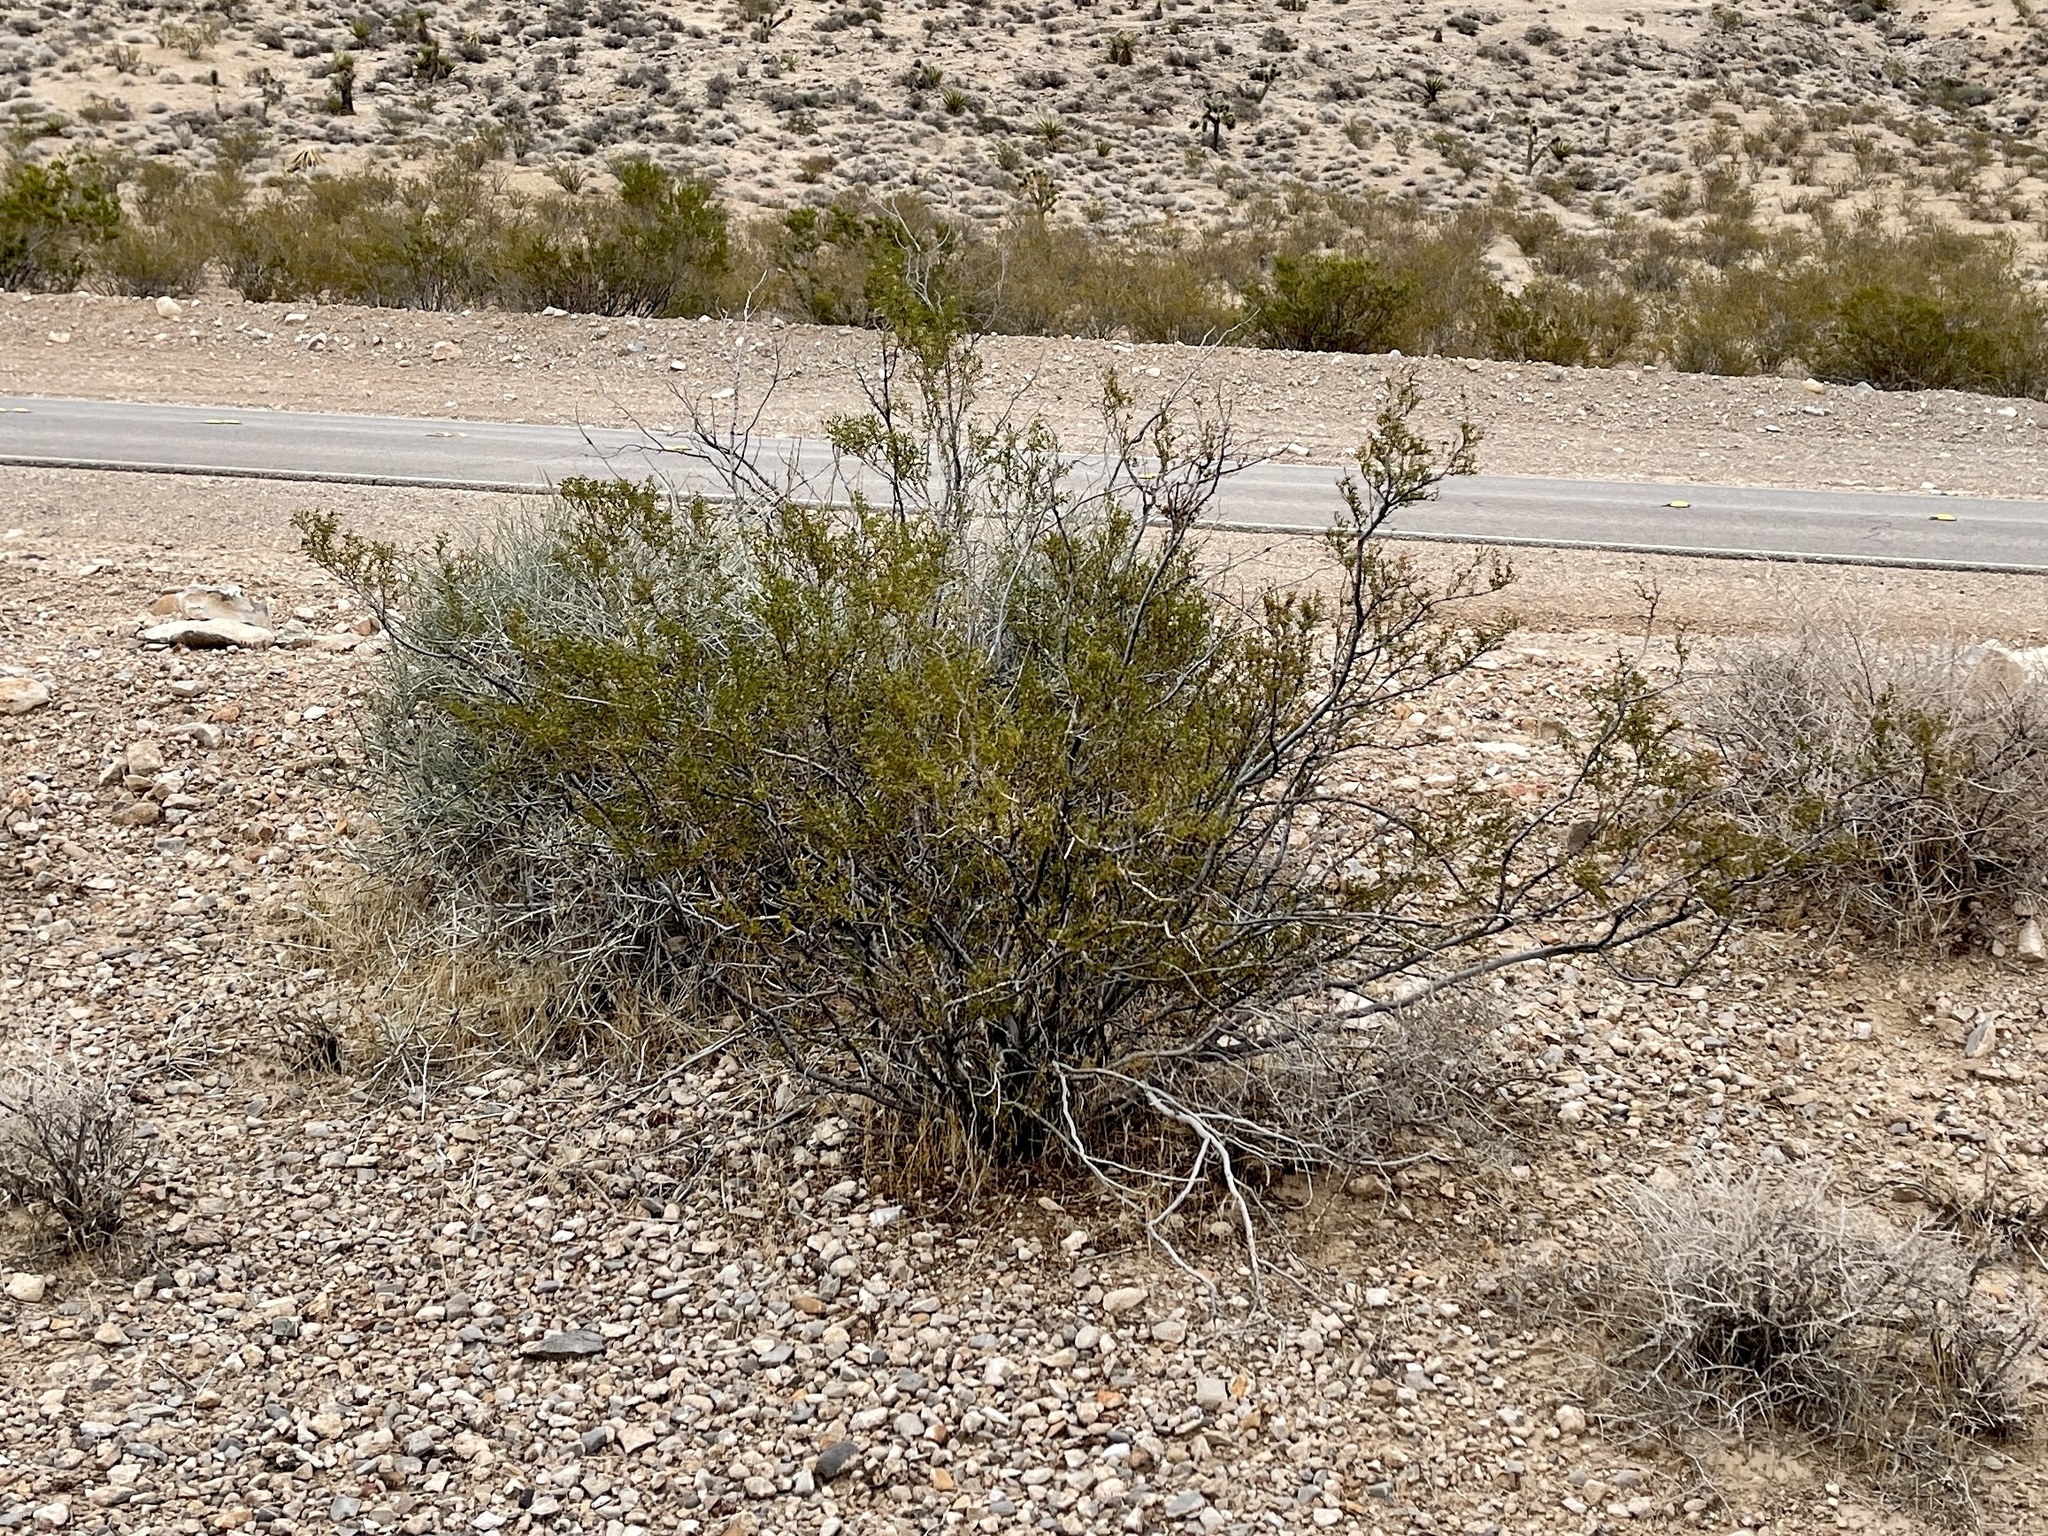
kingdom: Plantae
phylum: Tracheophyta
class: Magnoliopsida
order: Zygophyllales
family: Zygophyllaceae
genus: Larrea
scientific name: Larrea tridentata
